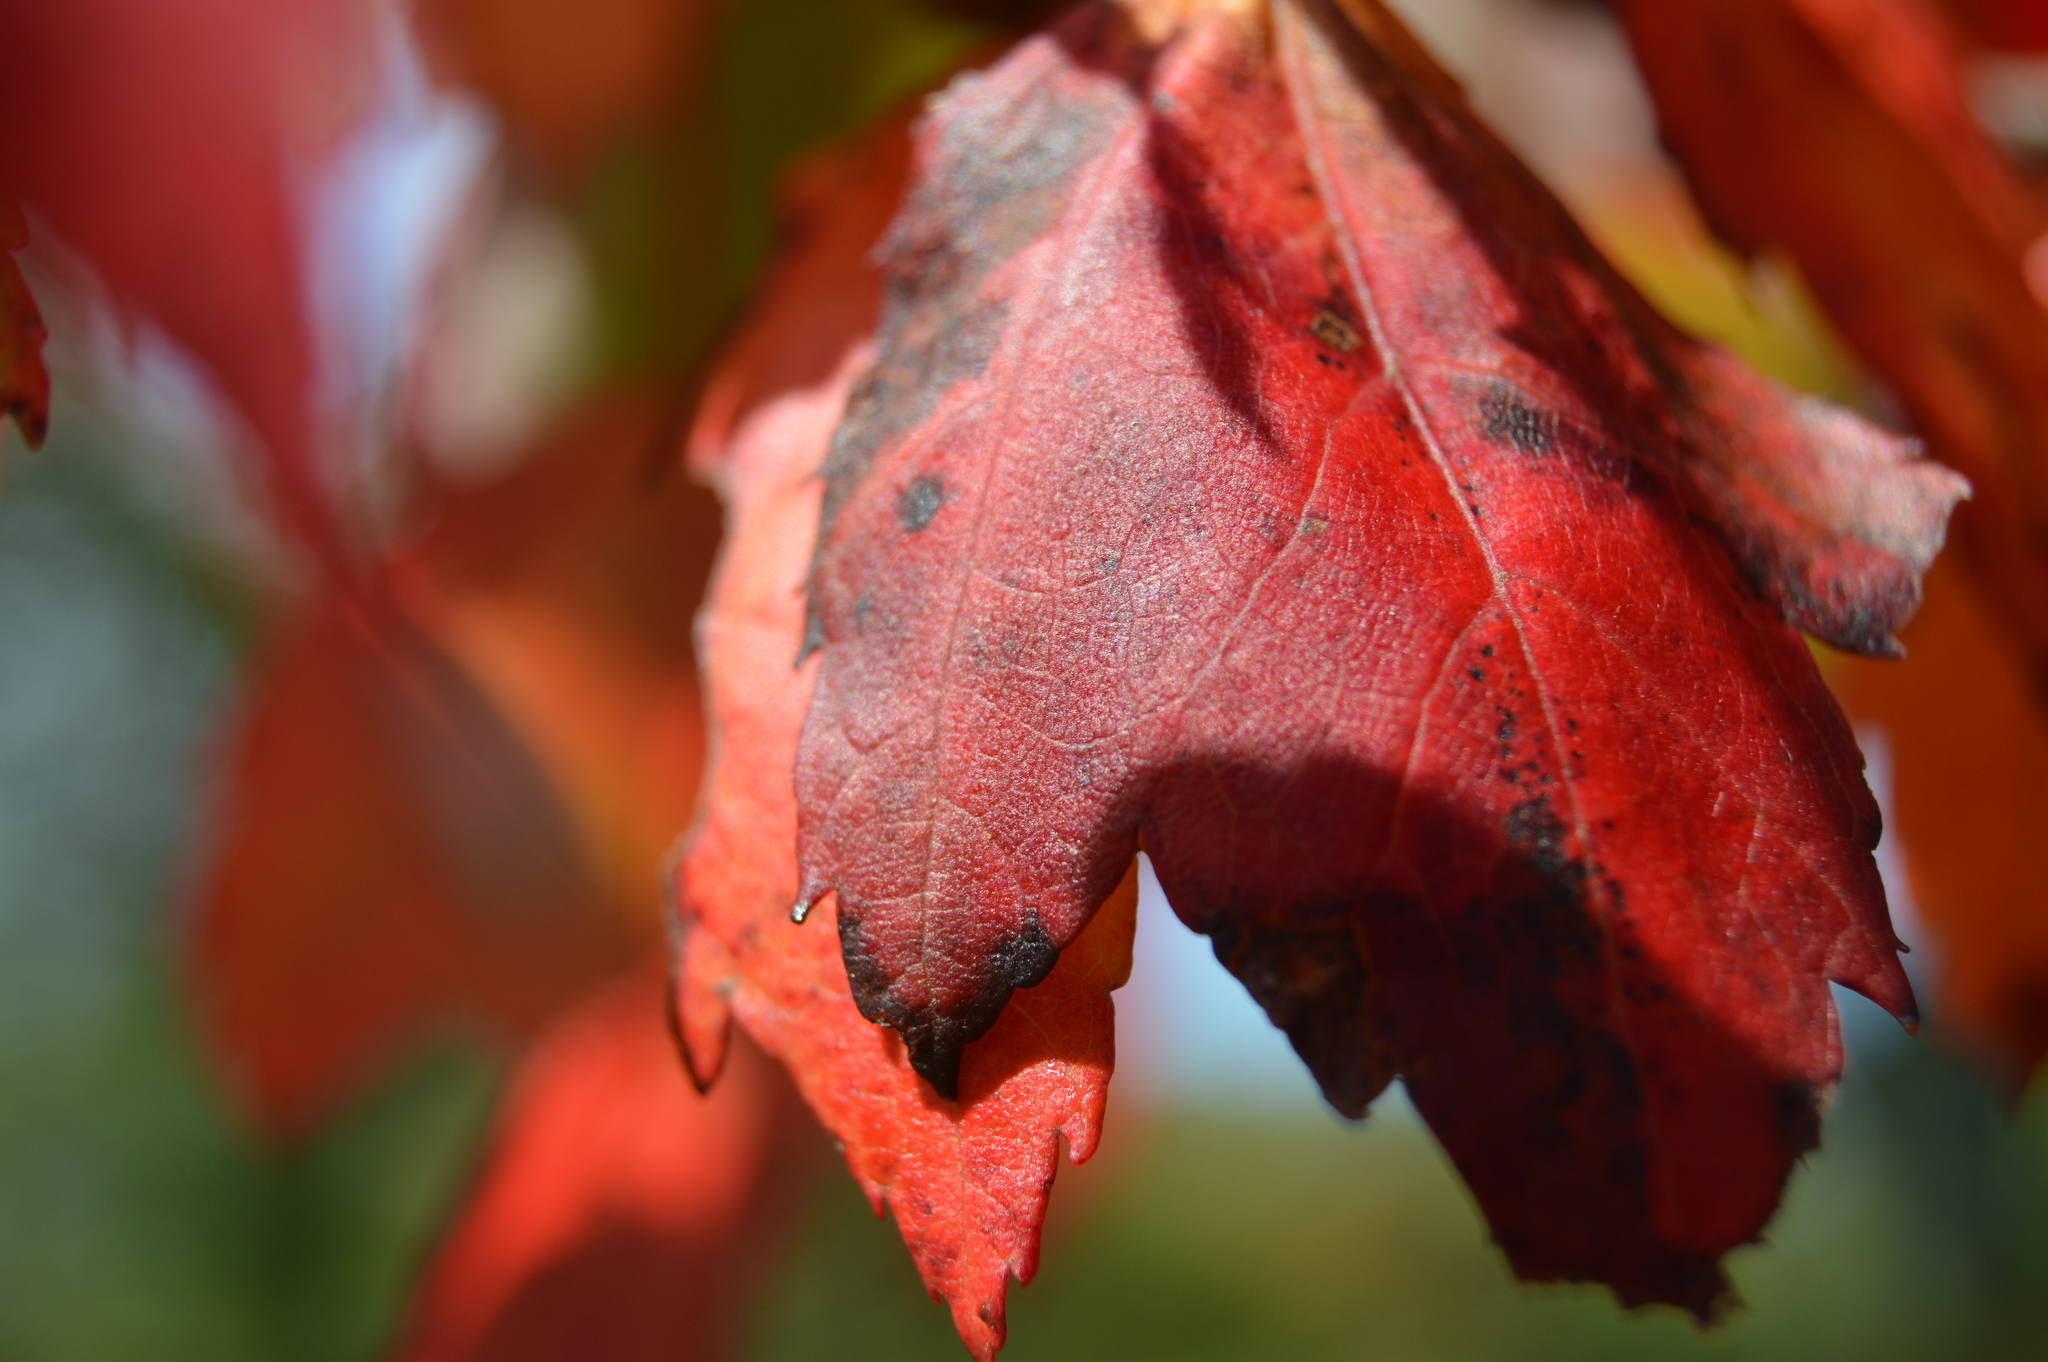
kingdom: Plantae
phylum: Tracheophyta
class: Magnoliopsida
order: Sapindales
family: Sapindaceae
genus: Acer
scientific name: Acer rubrum
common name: Red maple
